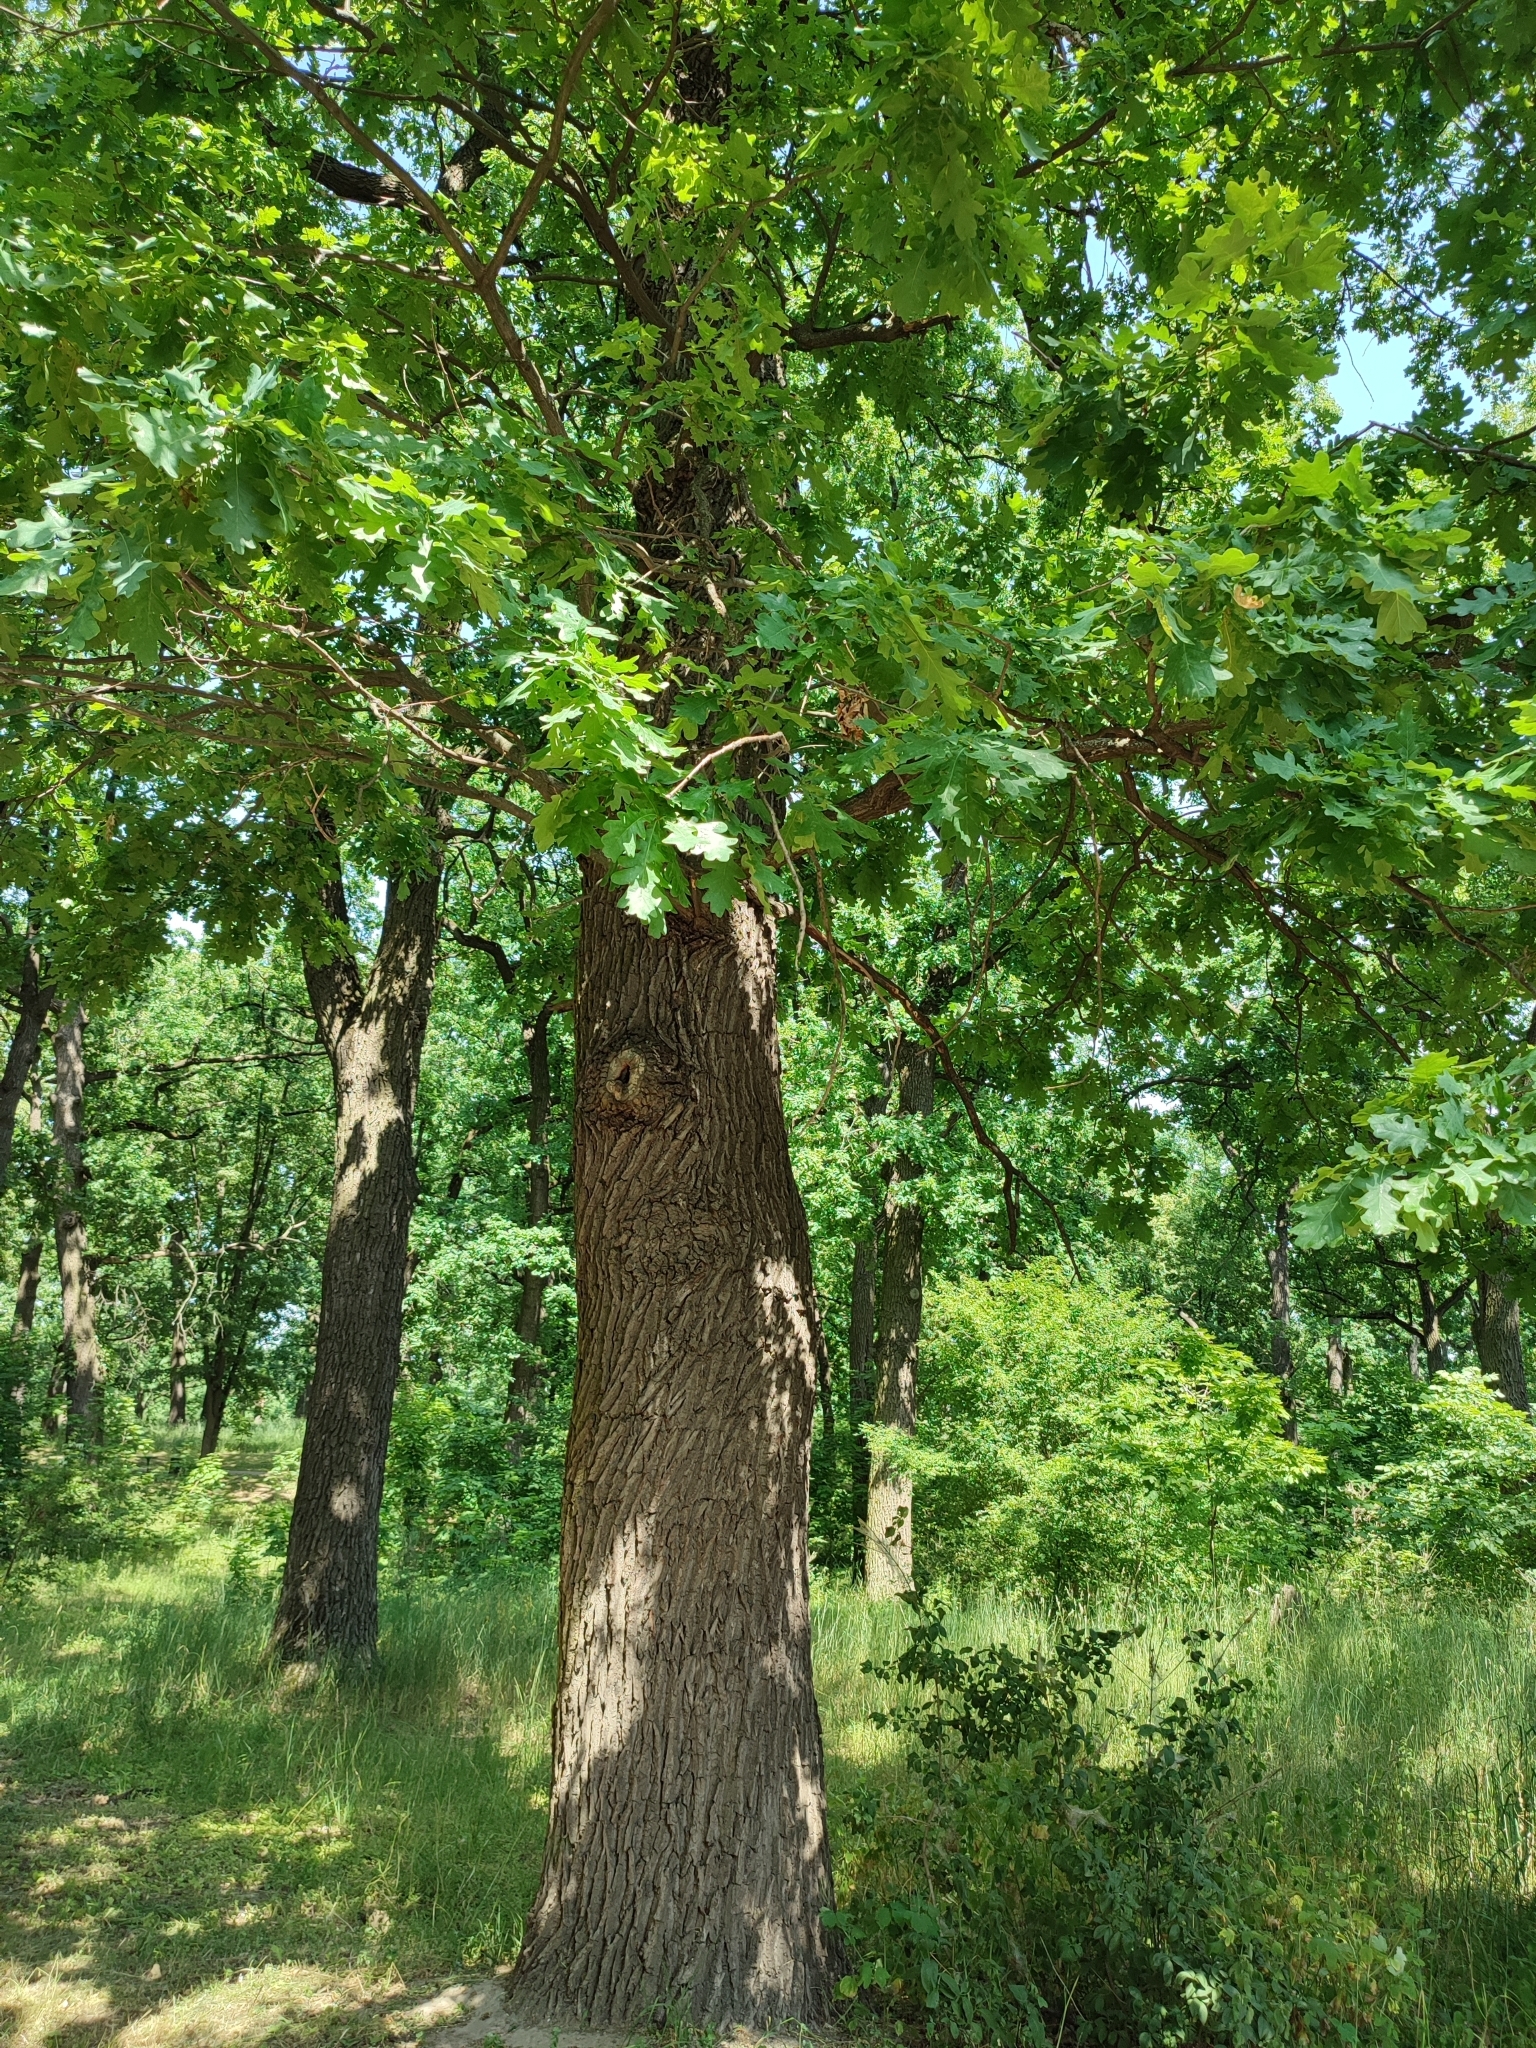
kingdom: Plantae
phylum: Tracheophyta
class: Magnoliopsida
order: Fagales
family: Fagaceae
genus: Quercus
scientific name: Quercus robur
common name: Pedunculate oak
